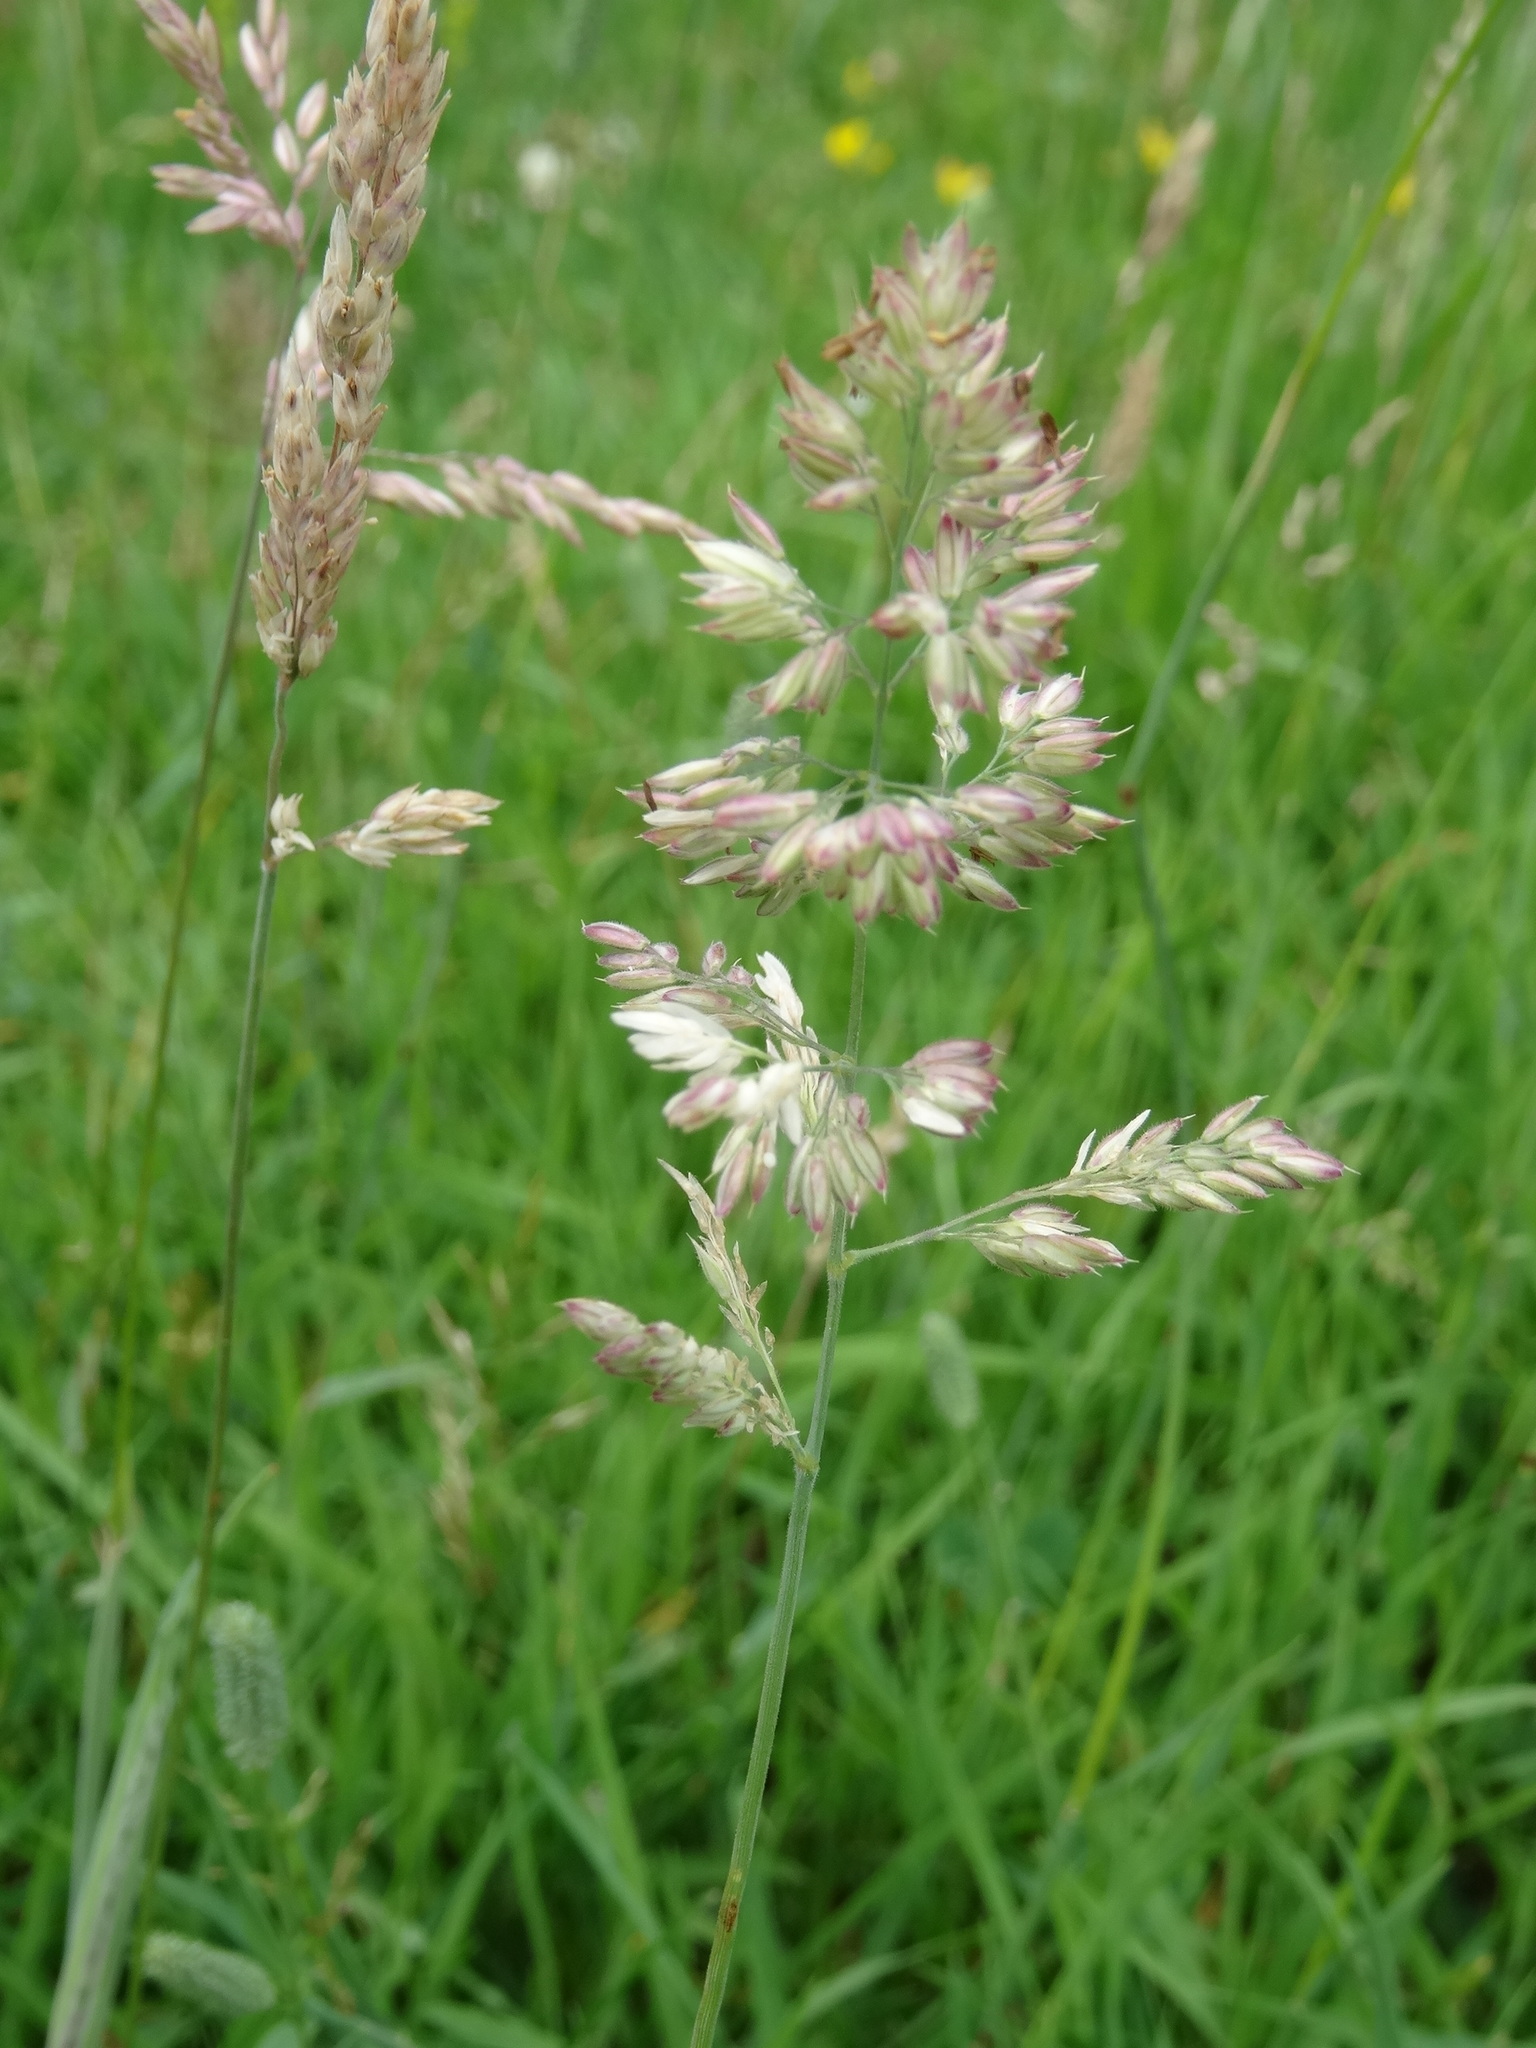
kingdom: Plantae
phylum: Tracheophyta
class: Liliopsida
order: Poales
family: Poaceae
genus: Holcus
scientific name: Holcus lanatus
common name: Yorkshire-fog
